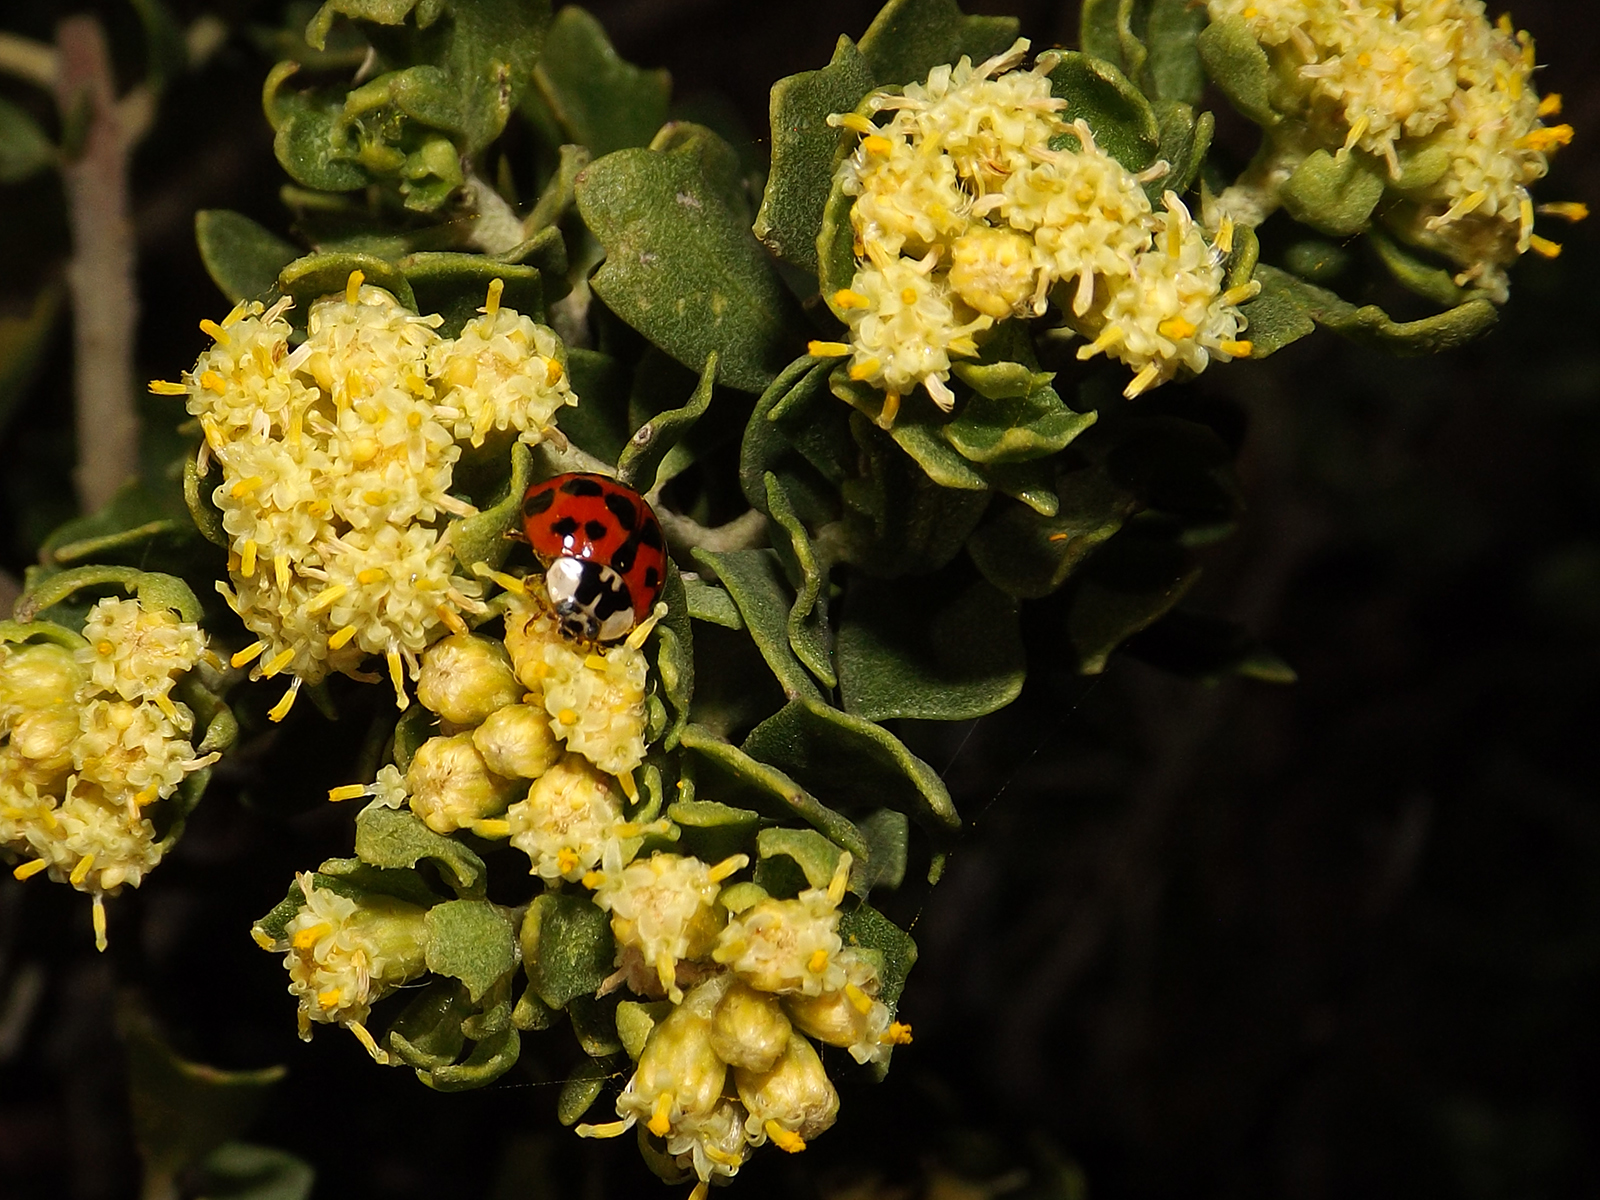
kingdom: Animalia
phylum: Arthropoda
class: Insecta
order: Coleoptera
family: Coccinellidae
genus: Harmonia
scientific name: Harmonia axyridis
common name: Harlequin ladybird
